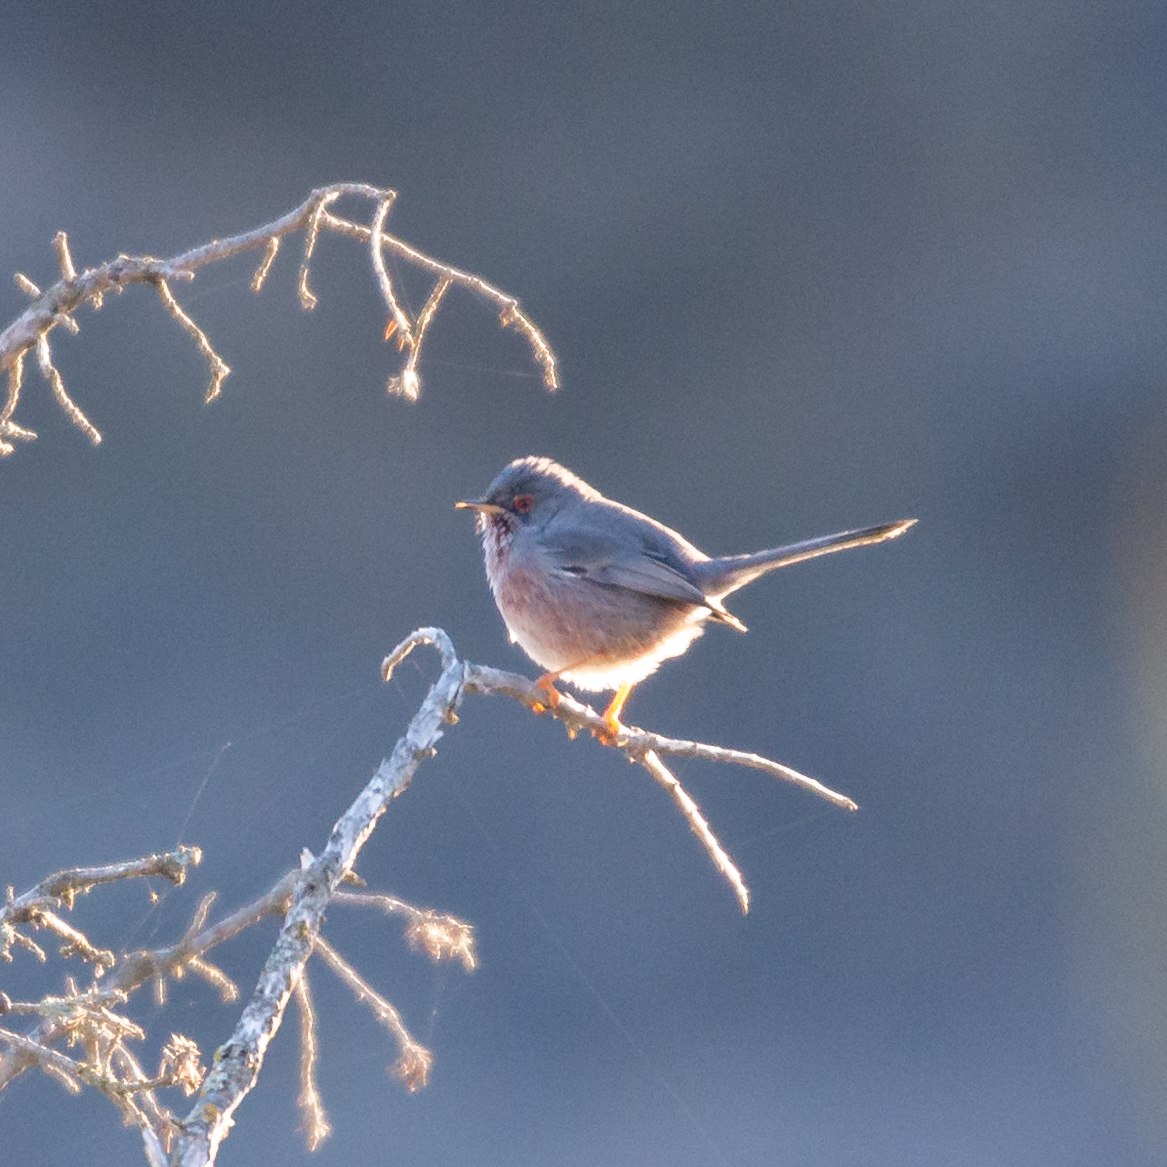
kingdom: Animalia
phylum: Chordata
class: Aves
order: Passeriformes
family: Sylviidae
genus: Sylvia
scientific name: Sylvia undata
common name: Dartford warbler
